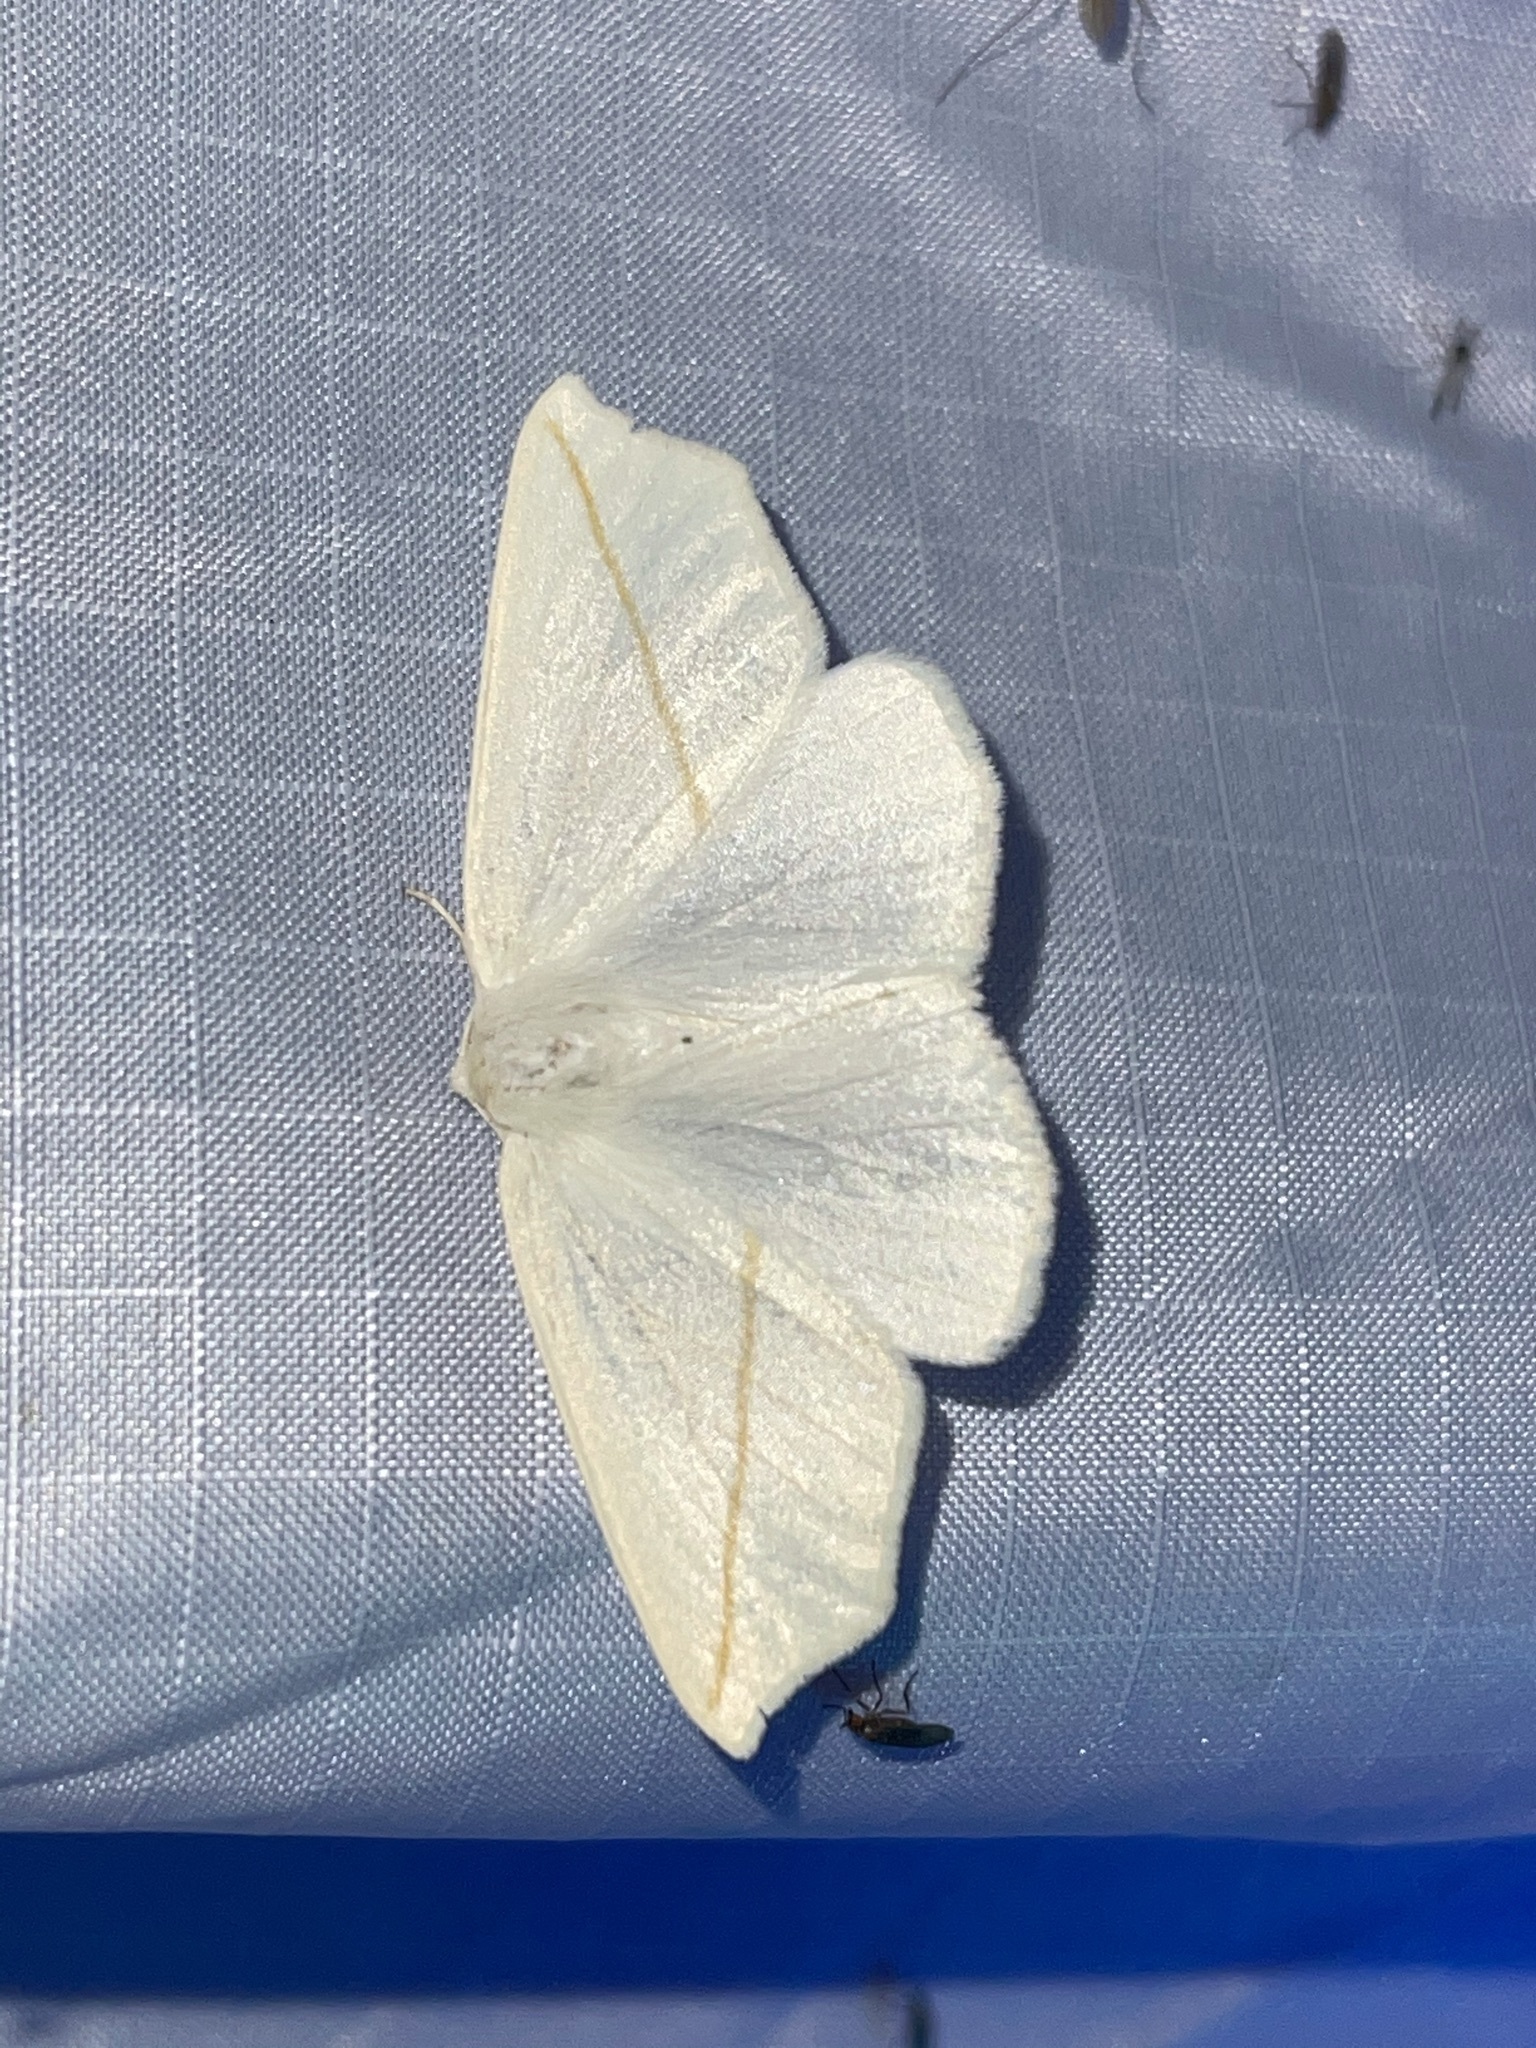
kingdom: Animalia
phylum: Arthropoda
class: Insecta
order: Lepidoptera
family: Geometridae
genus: Tetracis
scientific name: Tetracis cachexiata
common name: White slant-line
